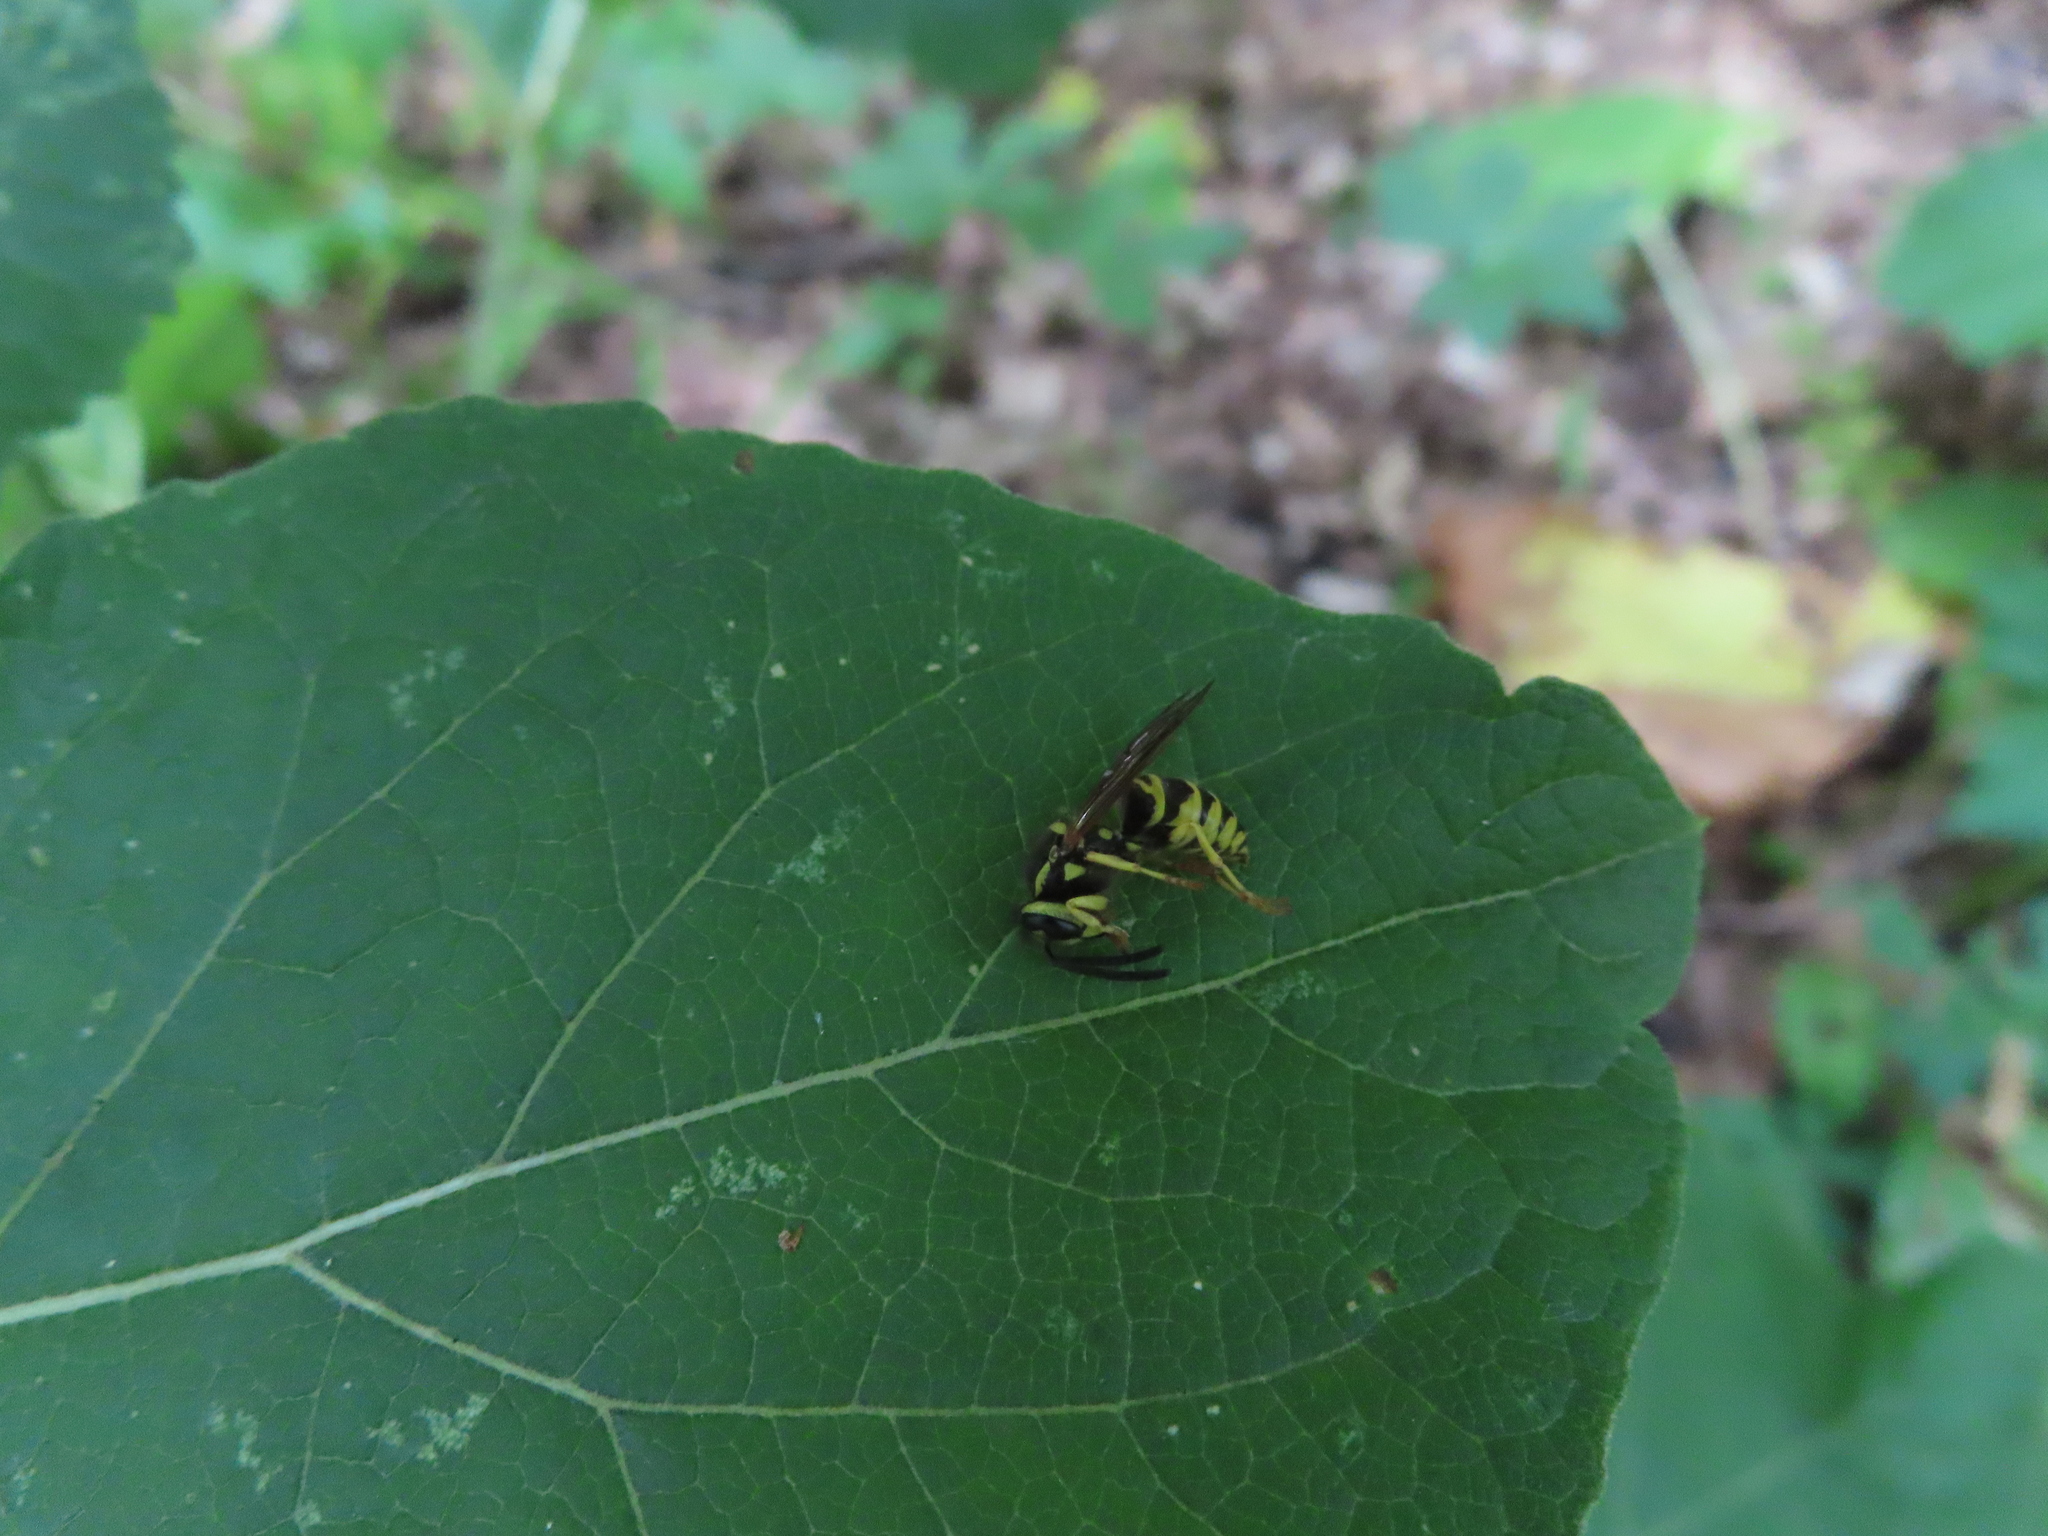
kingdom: Animalia
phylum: Arthropoda
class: Insecta
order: Hymenoptera
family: Vespidae
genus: Vespula
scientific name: Vespula maculifrons
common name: Eastern yellowjacket
